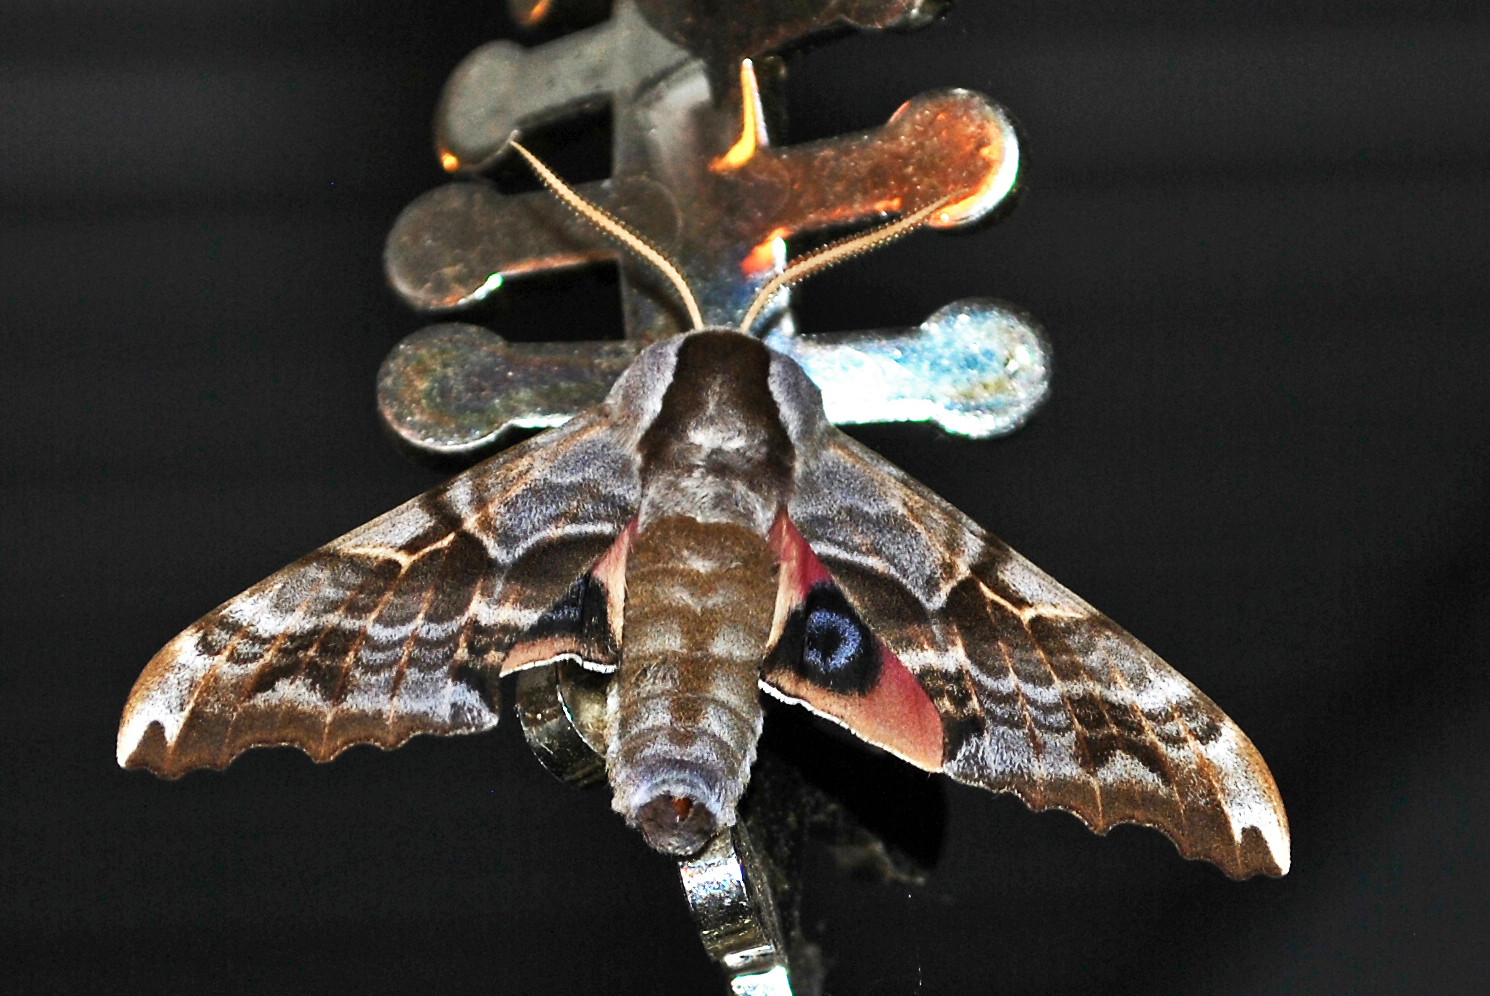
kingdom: Animalia
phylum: Arthropoda
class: Insecta
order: Lepidoptera
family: Sphingidae
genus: Smerinthus
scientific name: Smerinthus cerisyi
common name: Cerisy's sphinx moth
